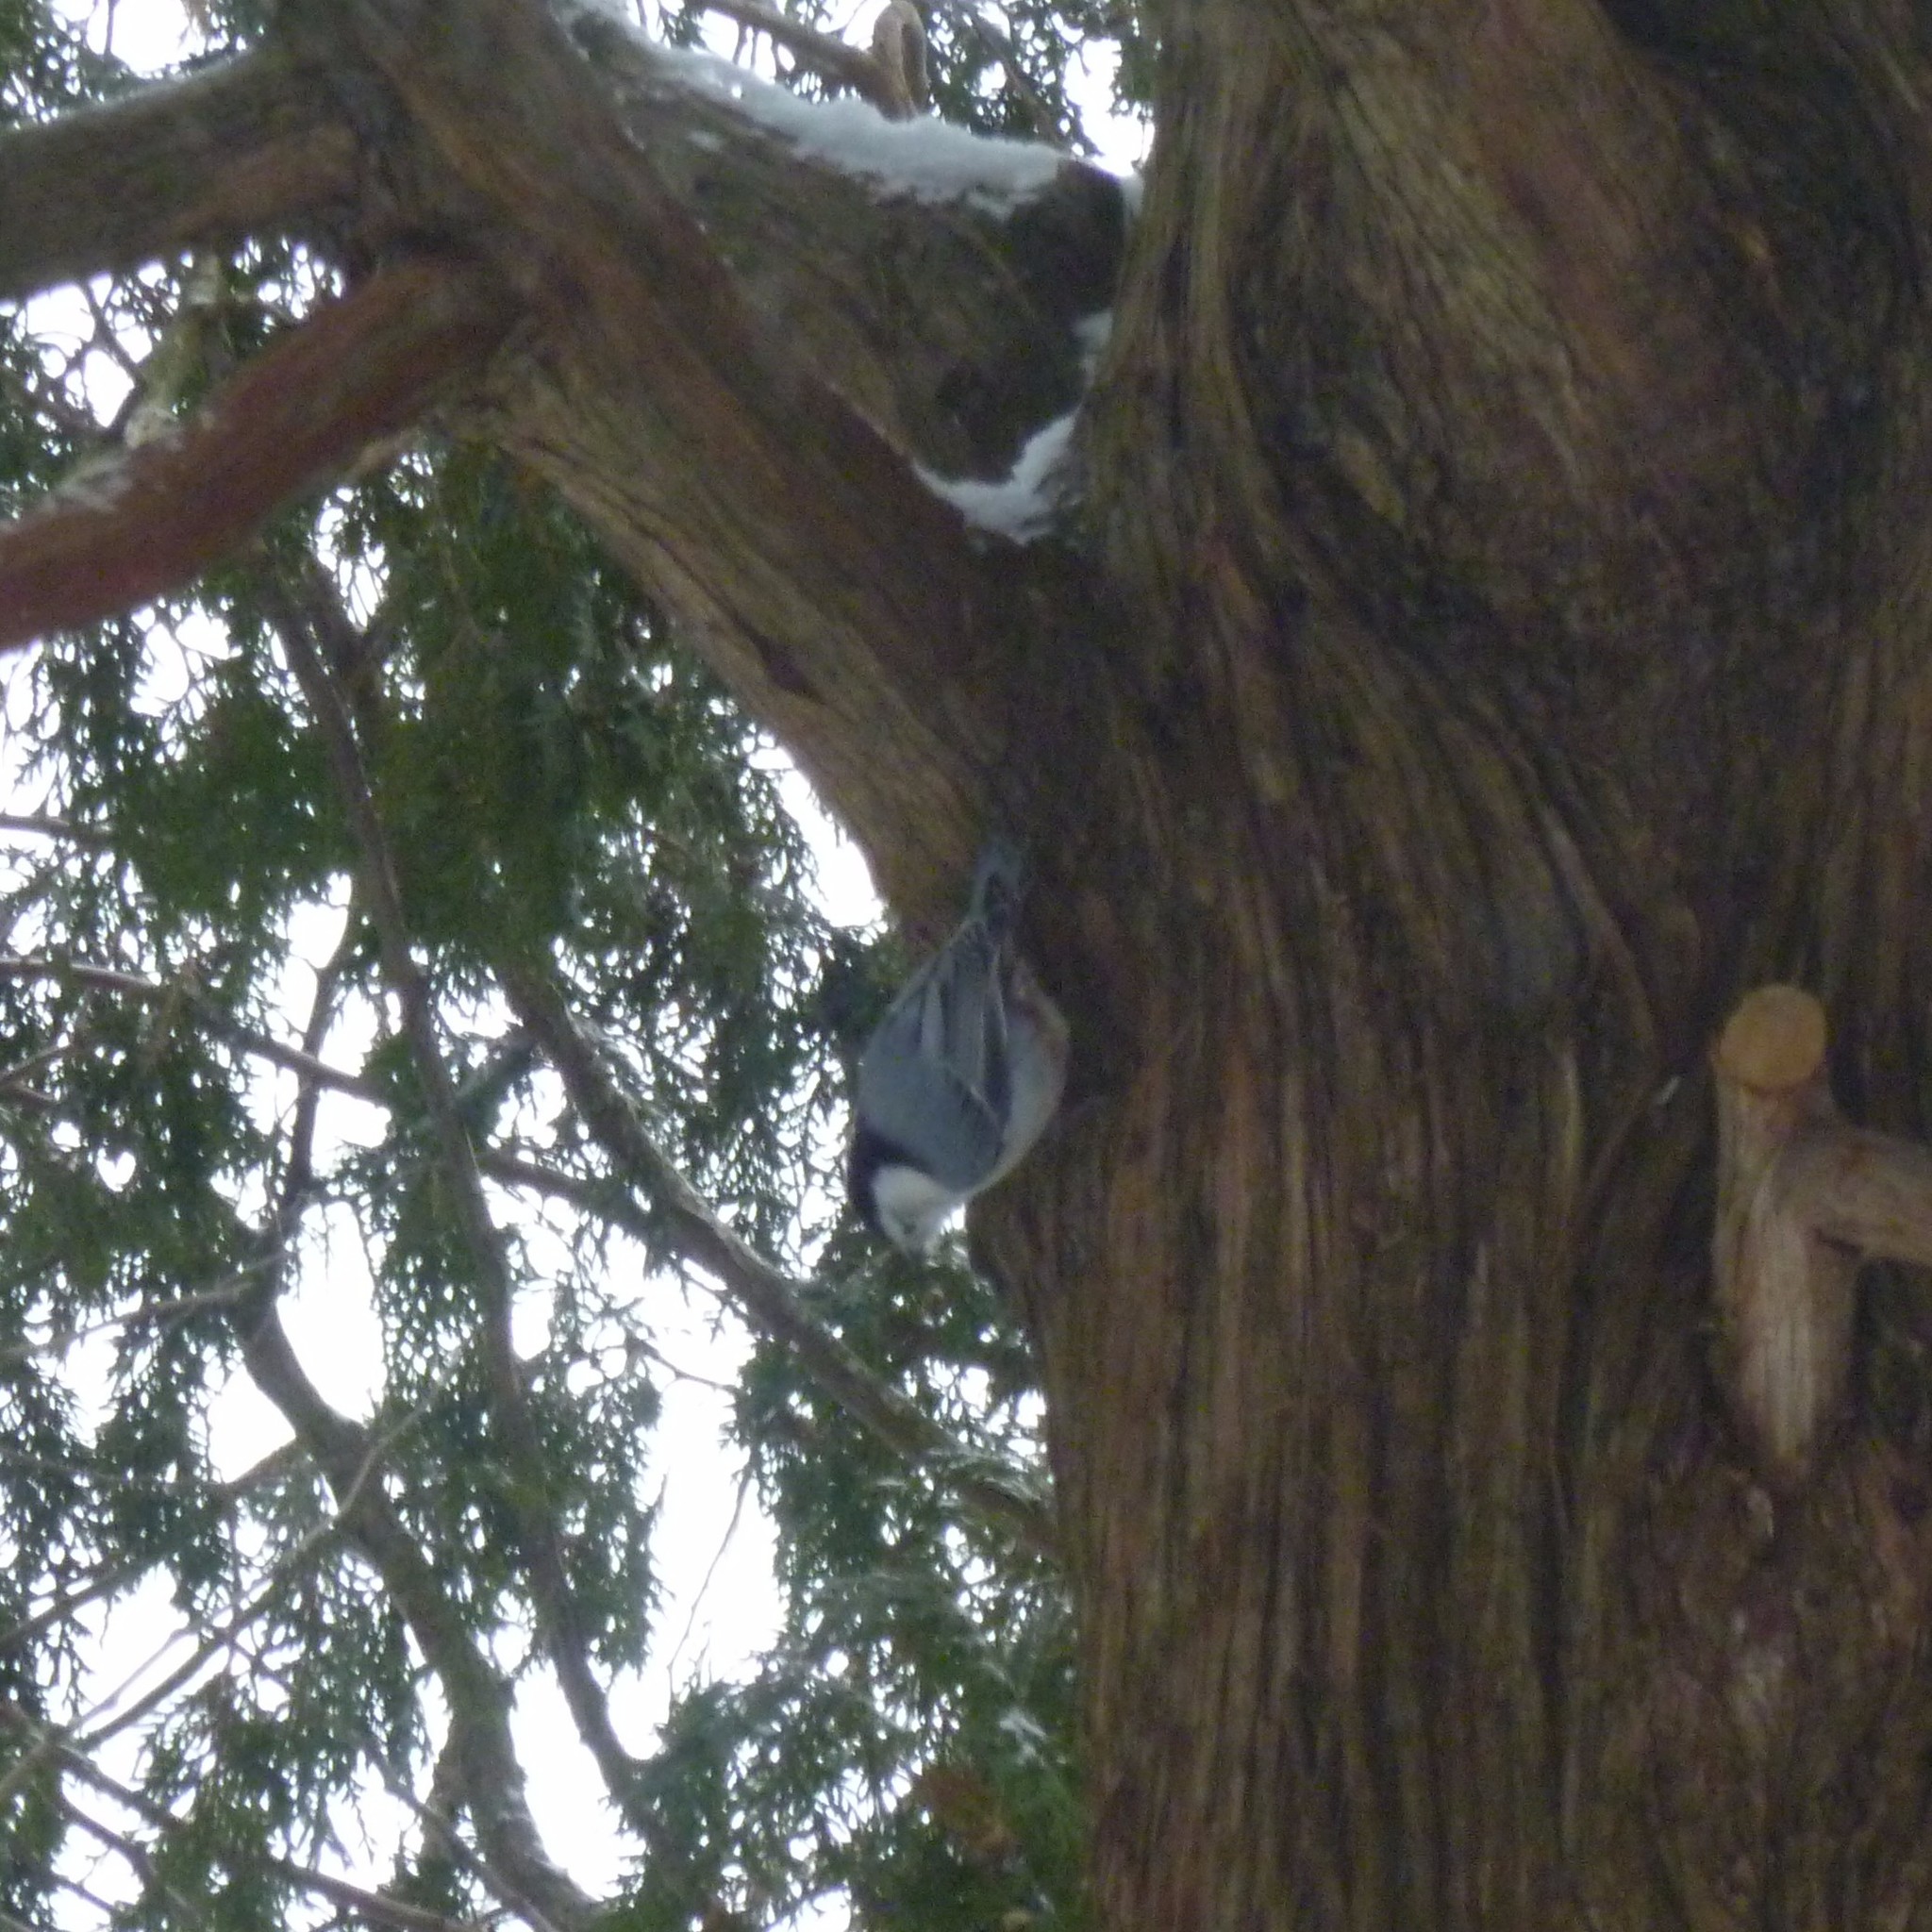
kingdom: Animalia
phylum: Chordata
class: Aves
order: Passeriformes
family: Sittidae
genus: Sitta
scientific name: Sitta carolinensis
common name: White-breasted nuthatch
